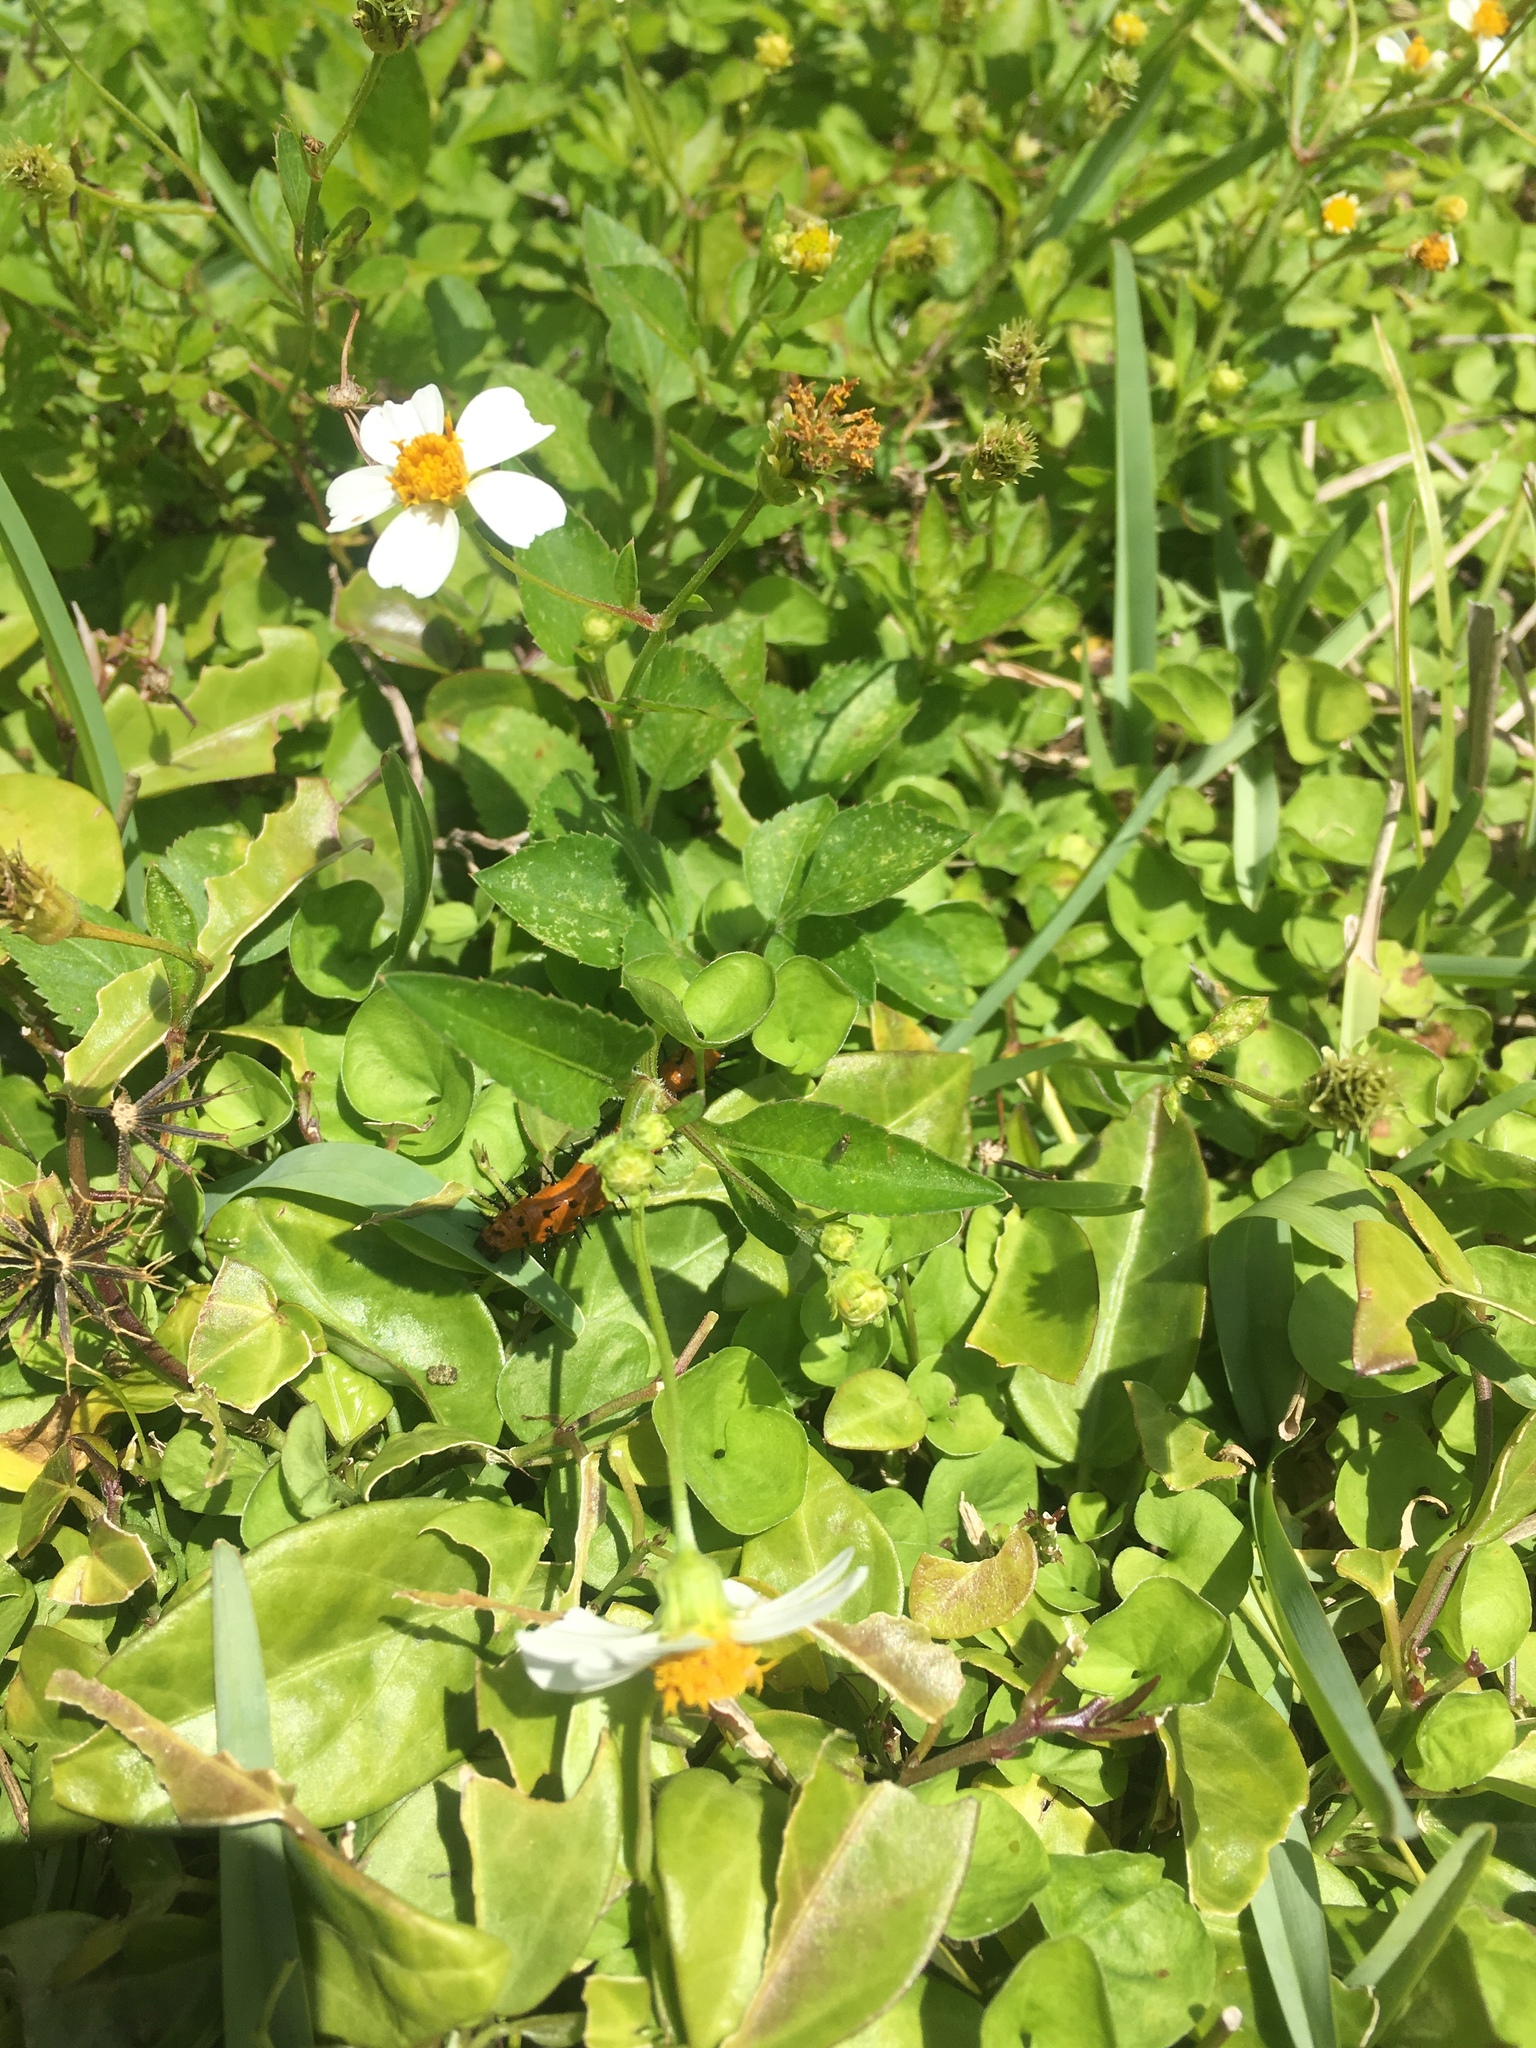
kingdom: Animalia
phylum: Arthropoda
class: Insecta
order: Lepidoptera
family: Nymphalidae
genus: Dione
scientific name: Dione vanillae
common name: Gulf fritillary
